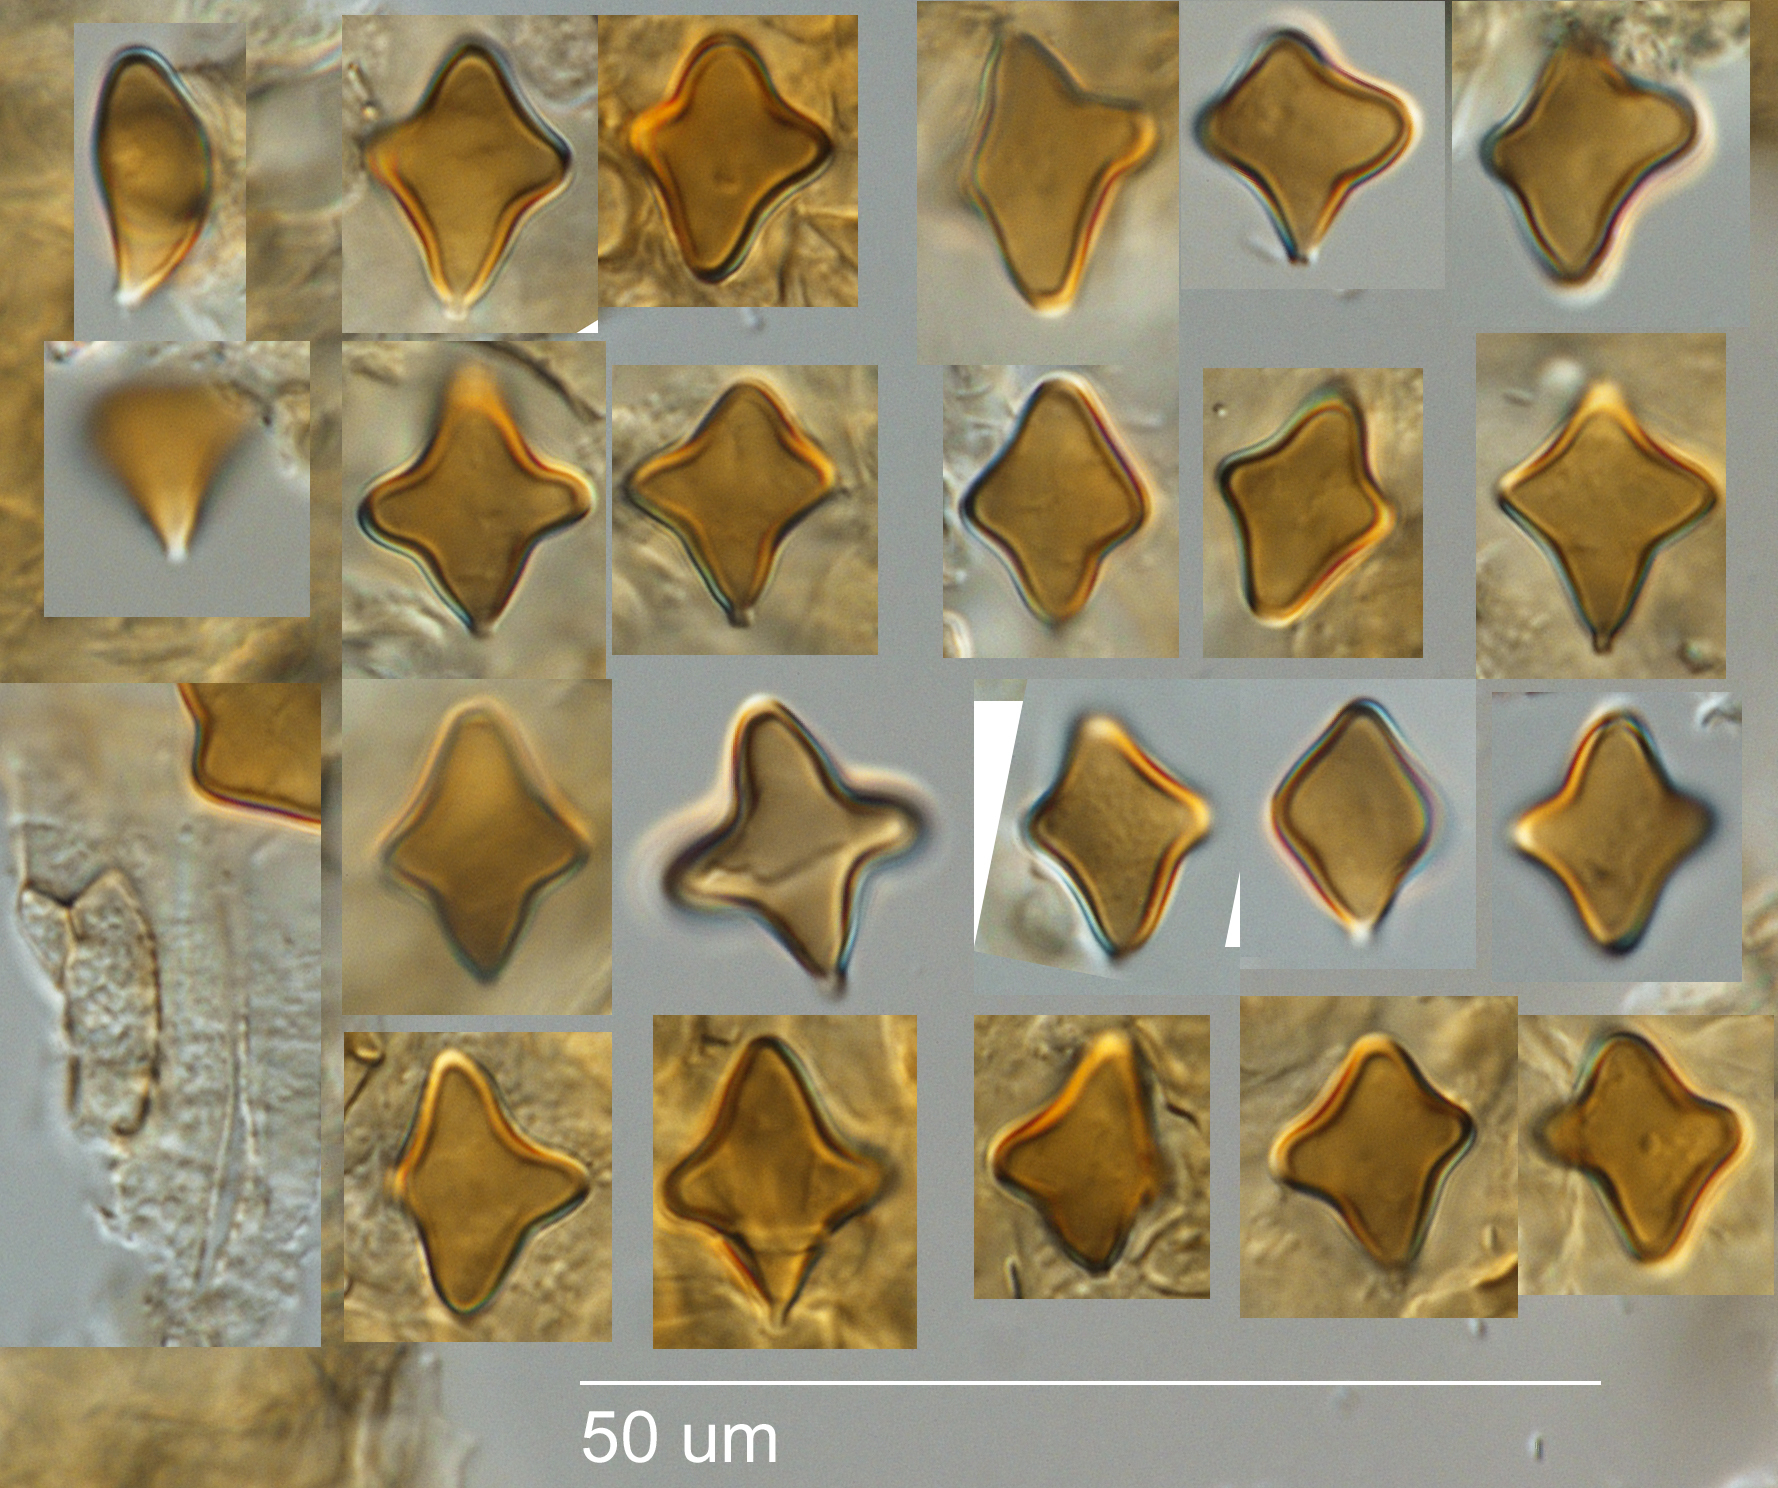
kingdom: Fungi
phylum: Basidiomycota
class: Agaricomycetes
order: Agaricales
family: Agaricaceae
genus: Crucispora
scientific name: Crucispora naucorioides
